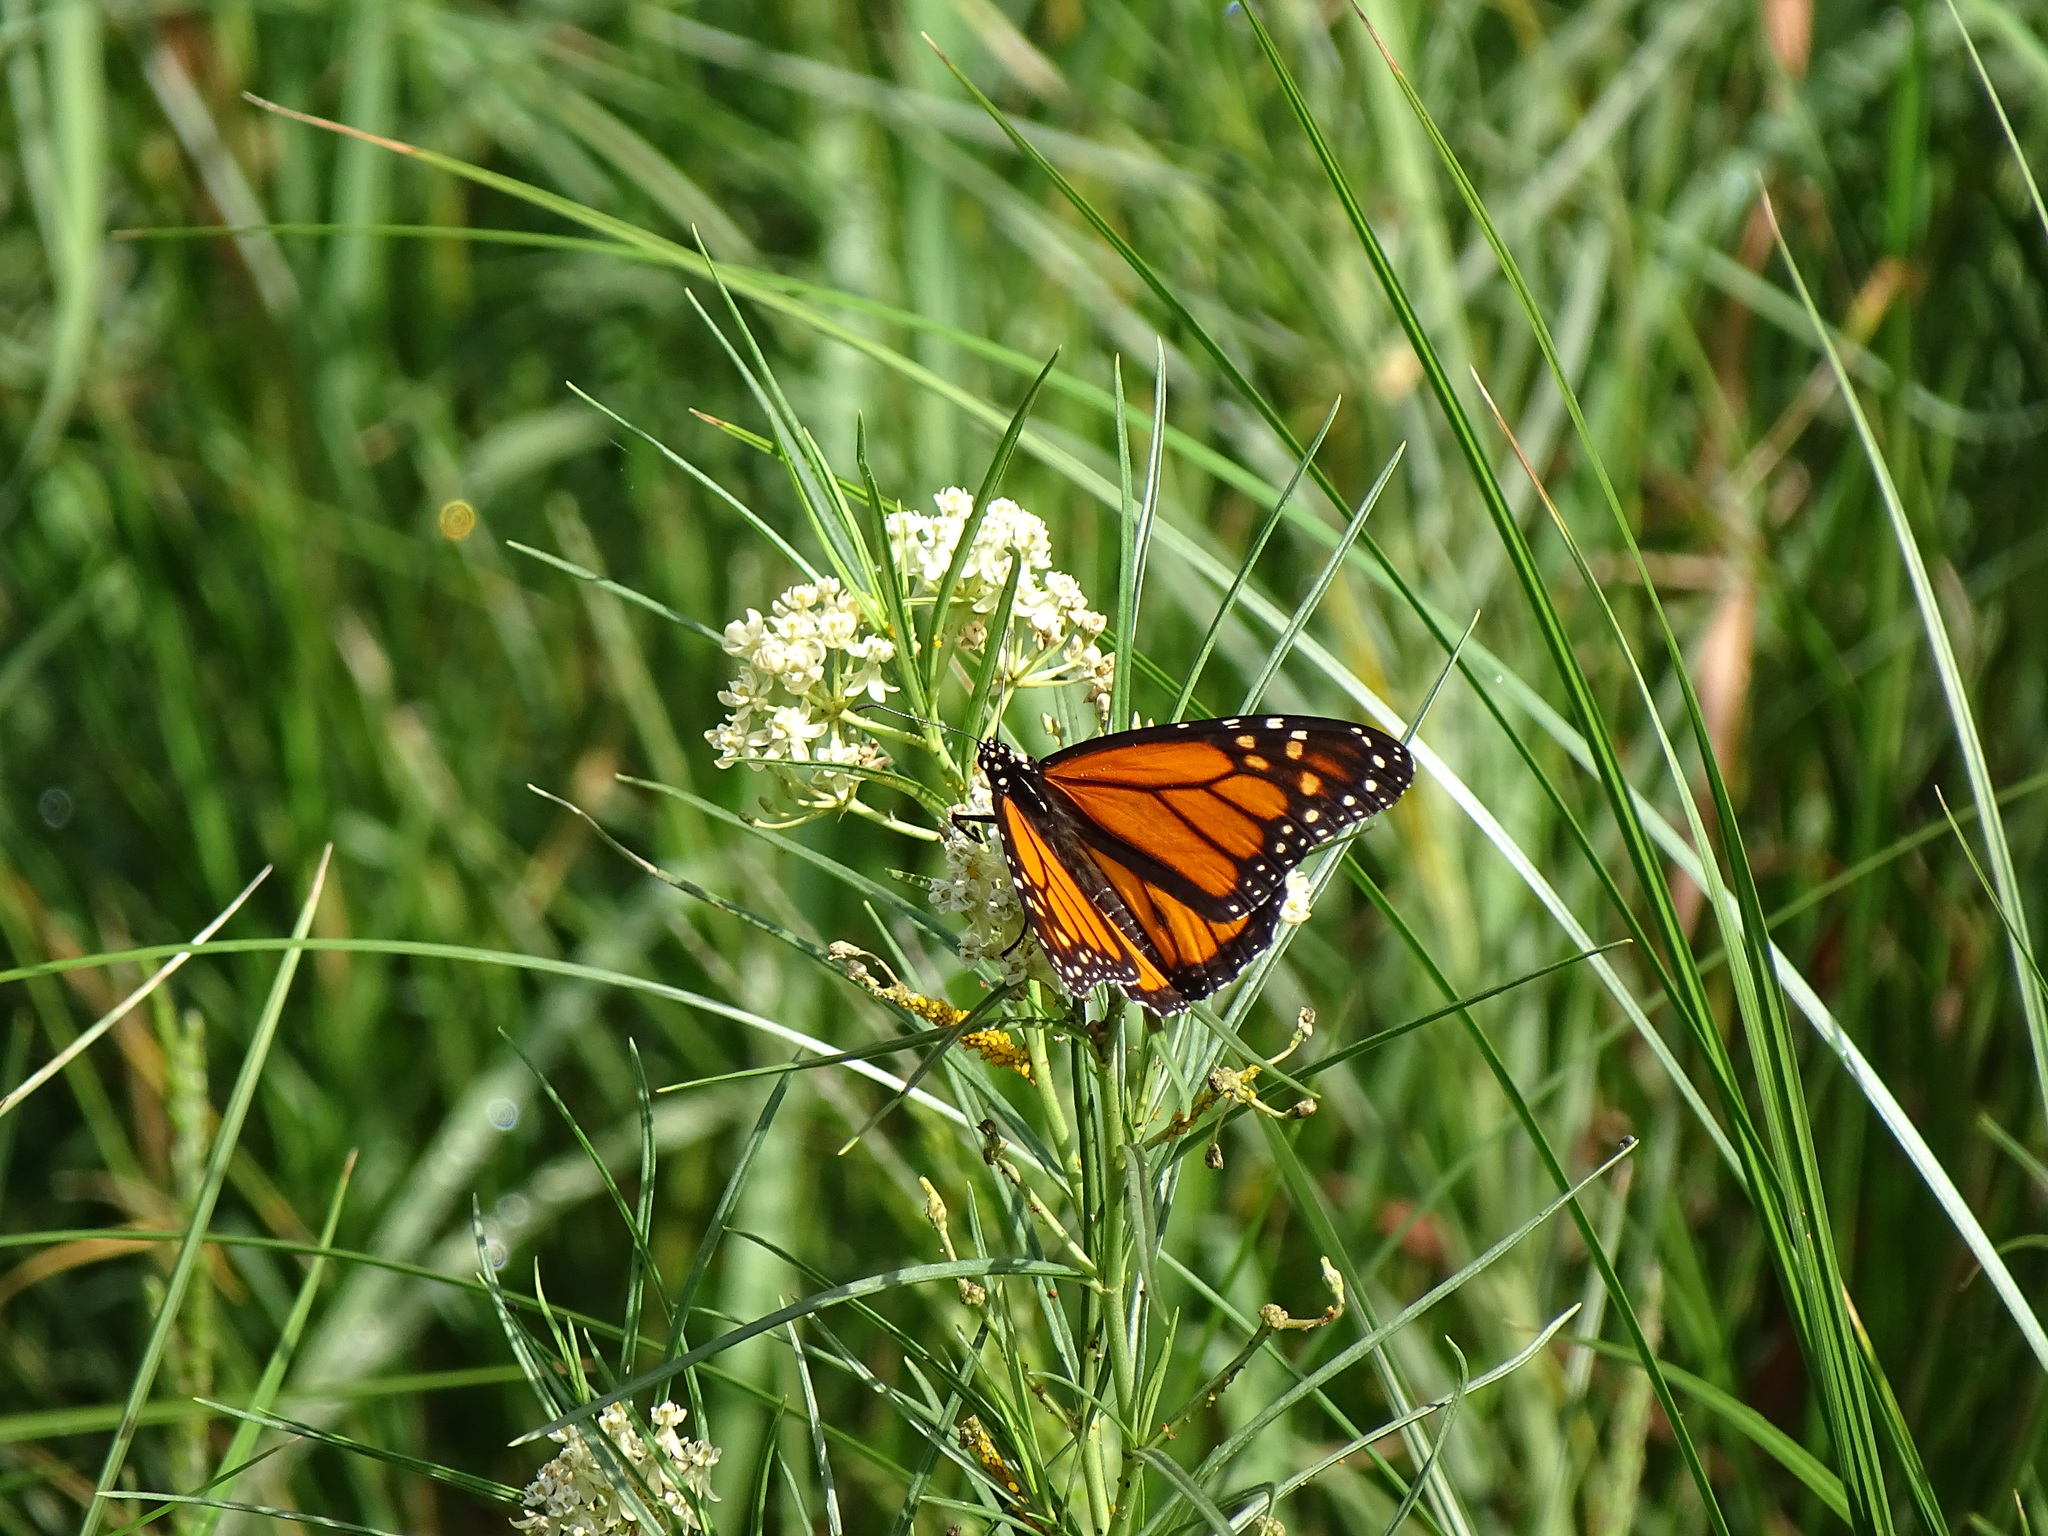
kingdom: Animalia
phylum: Arthropoda
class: Insecta
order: Lepidoptera
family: Nymphalidae
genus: Danaus
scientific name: Danaus plexippus
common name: Monarch
